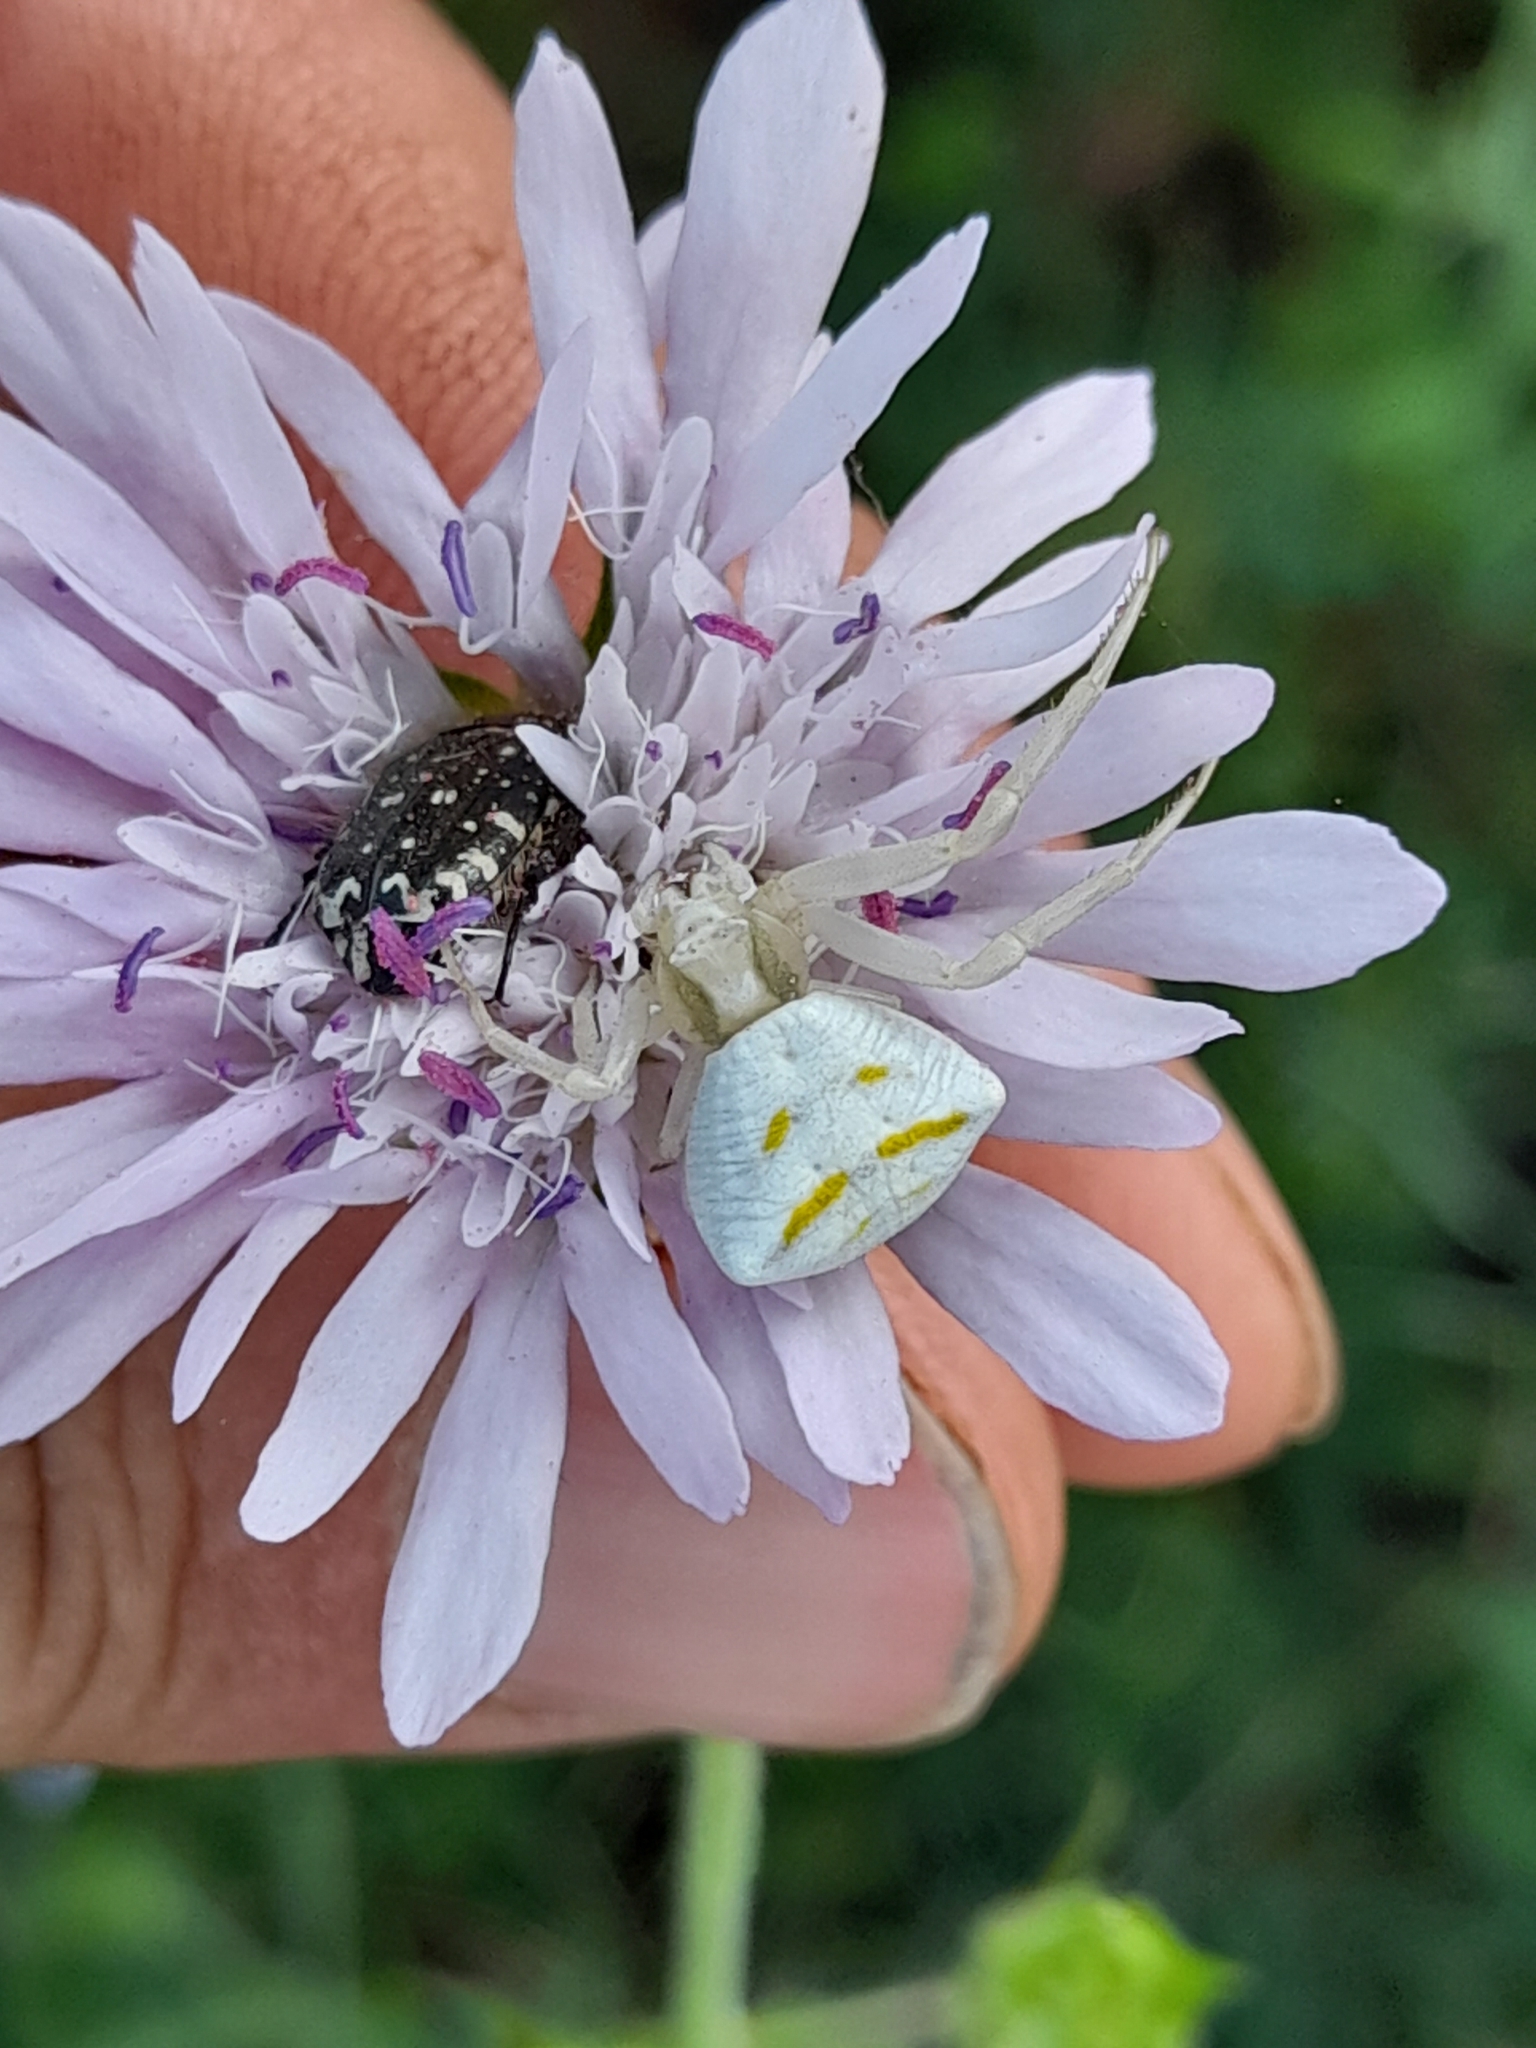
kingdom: Animalia
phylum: Arthropoda
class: Arachnida
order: Araneae
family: Thomisidae
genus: Thomisus
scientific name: Thomisus onustus
